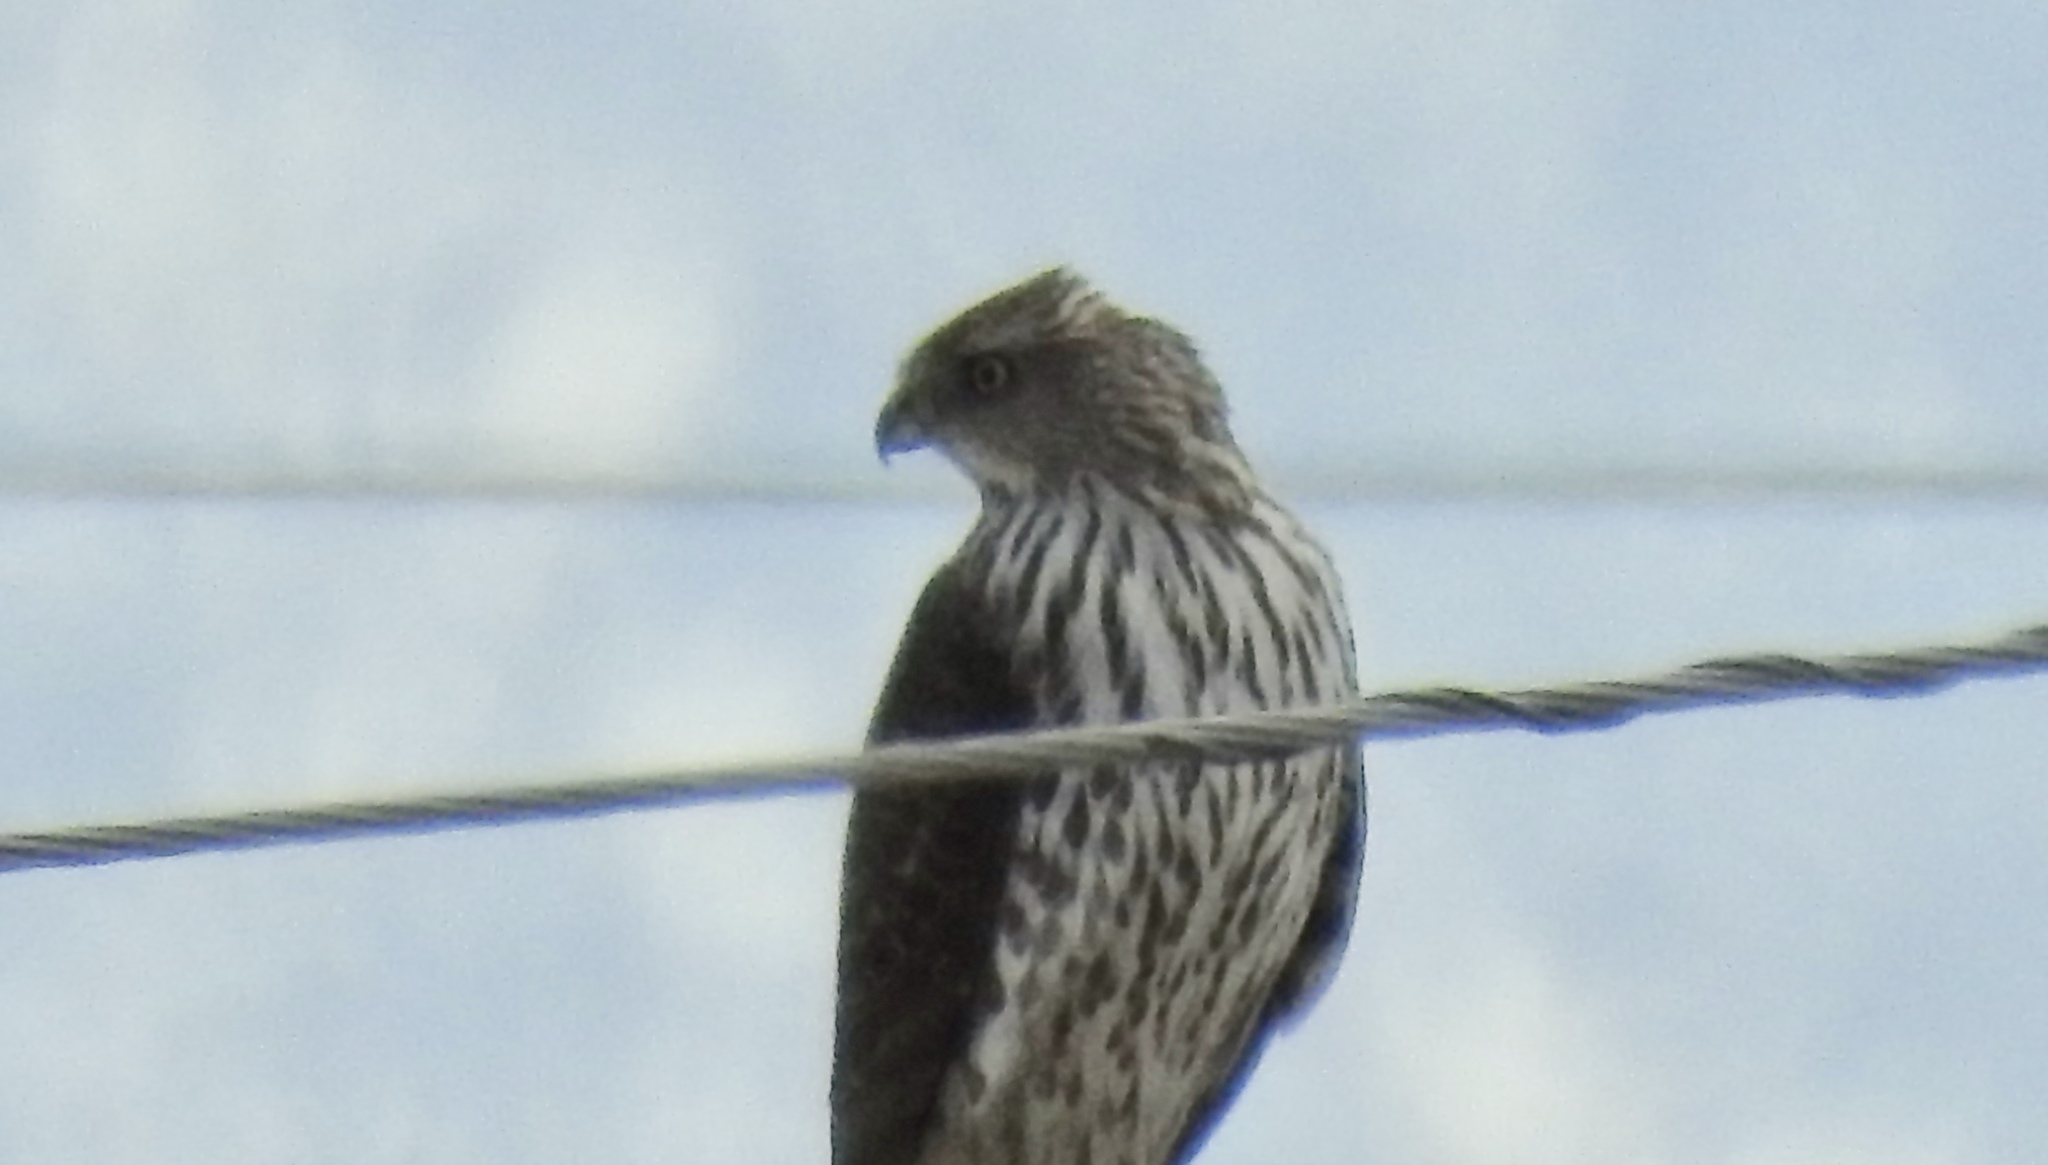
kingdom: Animalia
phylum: Chordata
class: Aves
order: Accipitriformes
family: Accipitridae
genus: Accipiter
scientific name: Accipiter cooperii
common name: Cooper's hawk
